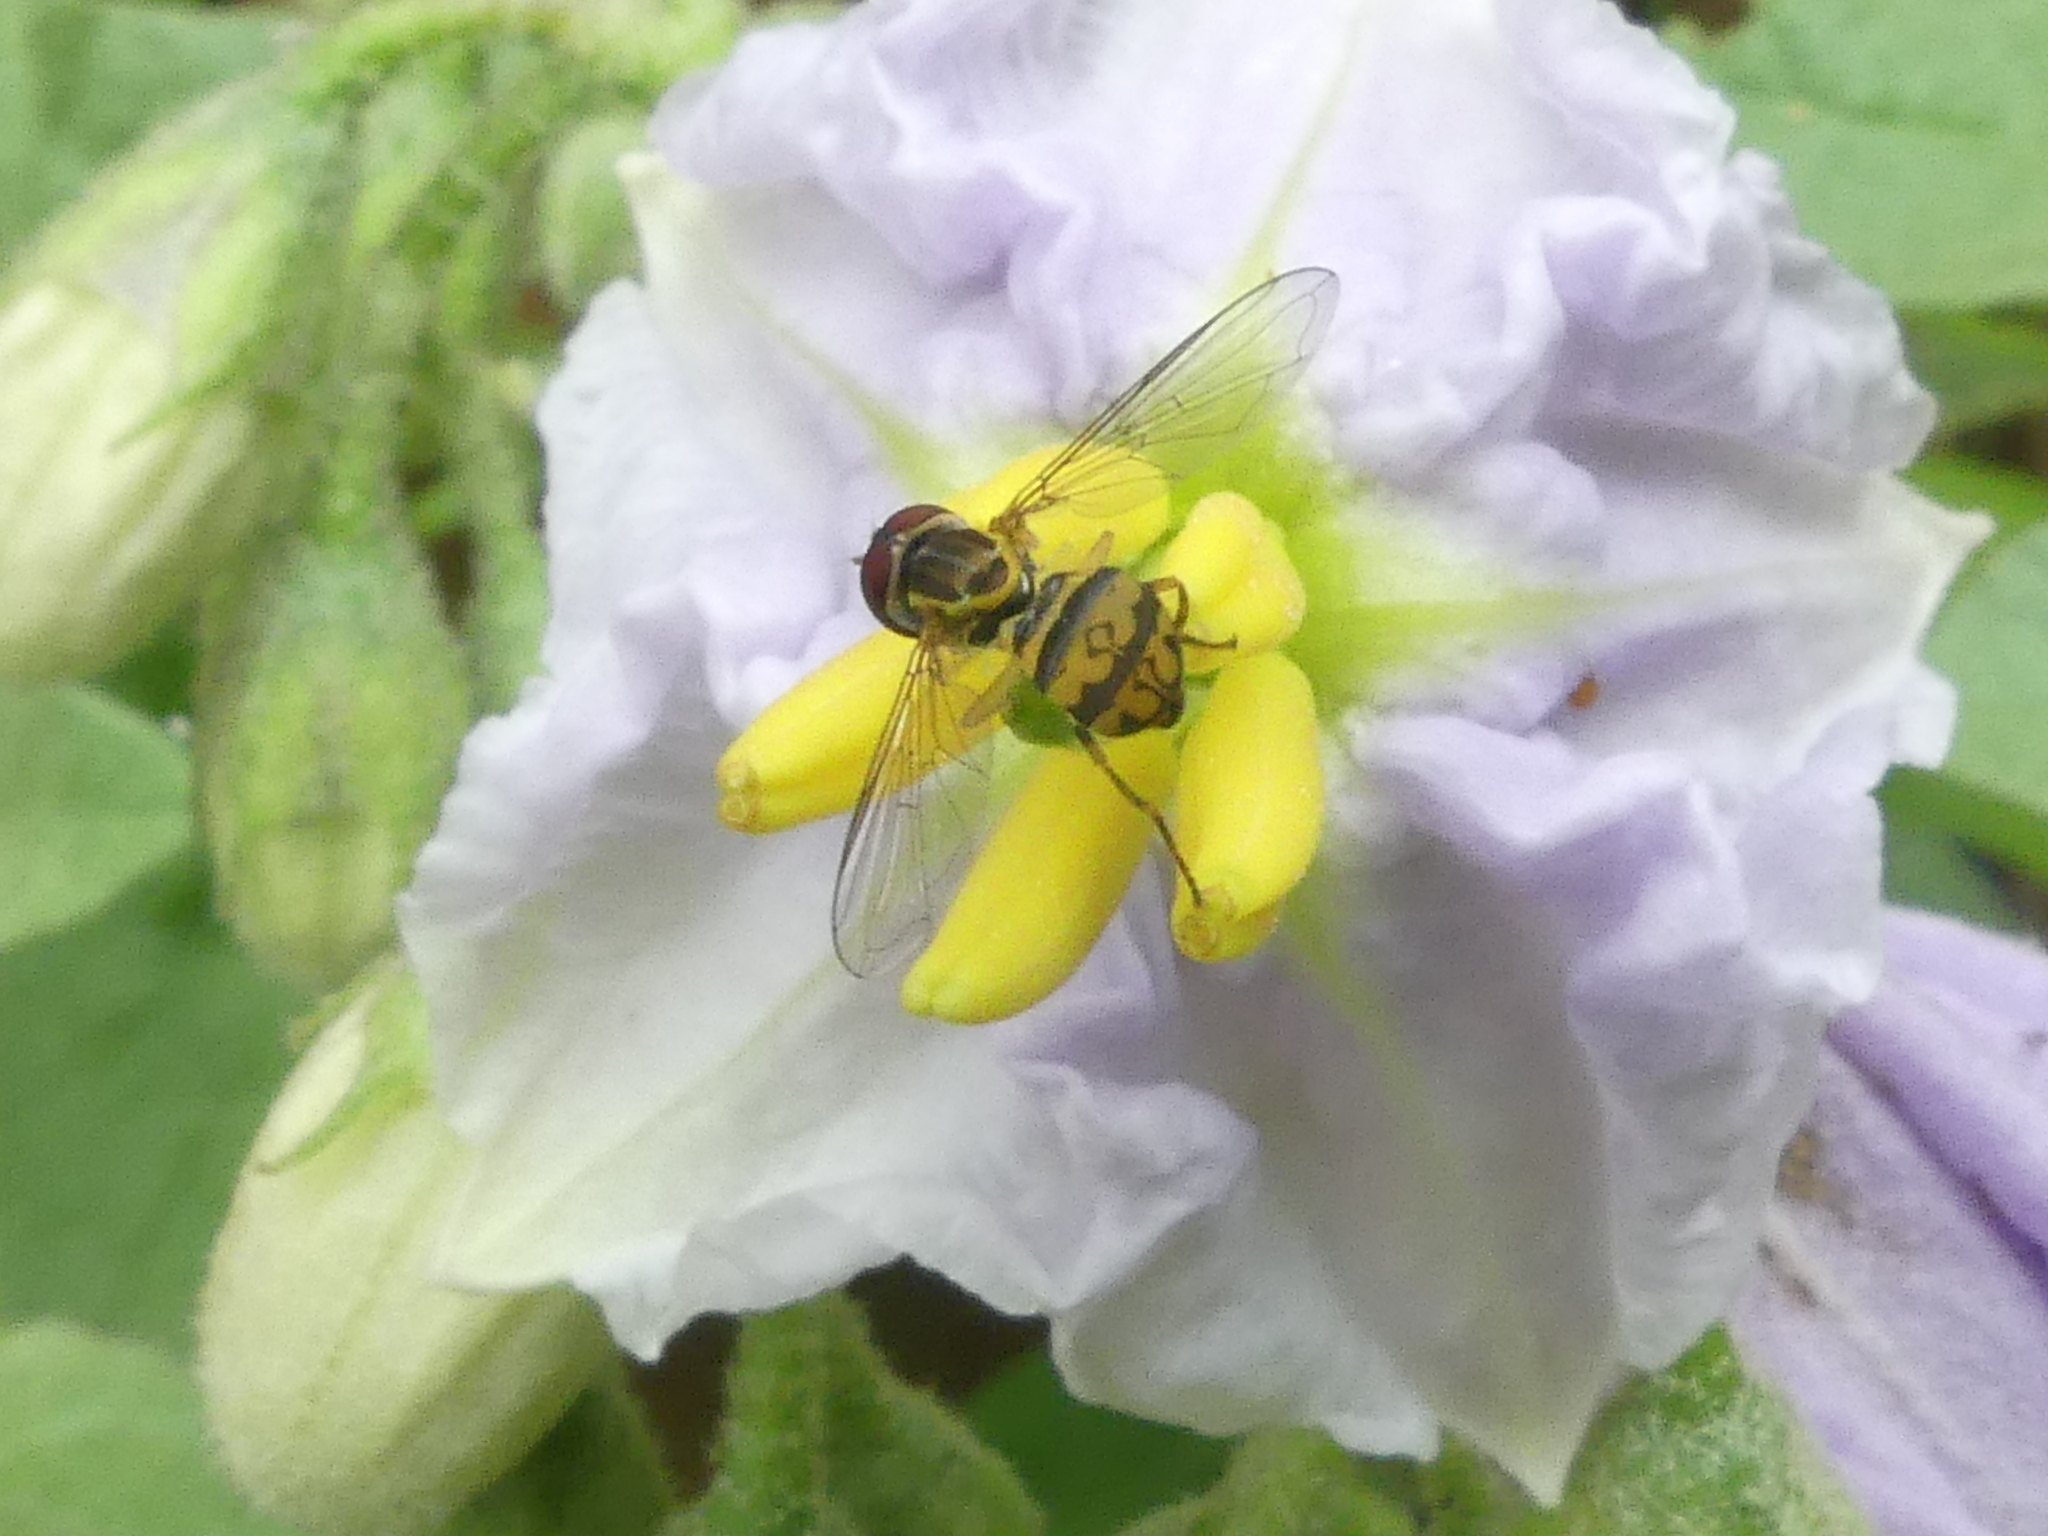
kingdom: Animalia
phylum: Arthropoda
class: Insecta
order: Diptera
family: Syrphidae
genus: Toxomerus
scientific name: Toxomerus geminatus
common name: Eastern calligrapher
